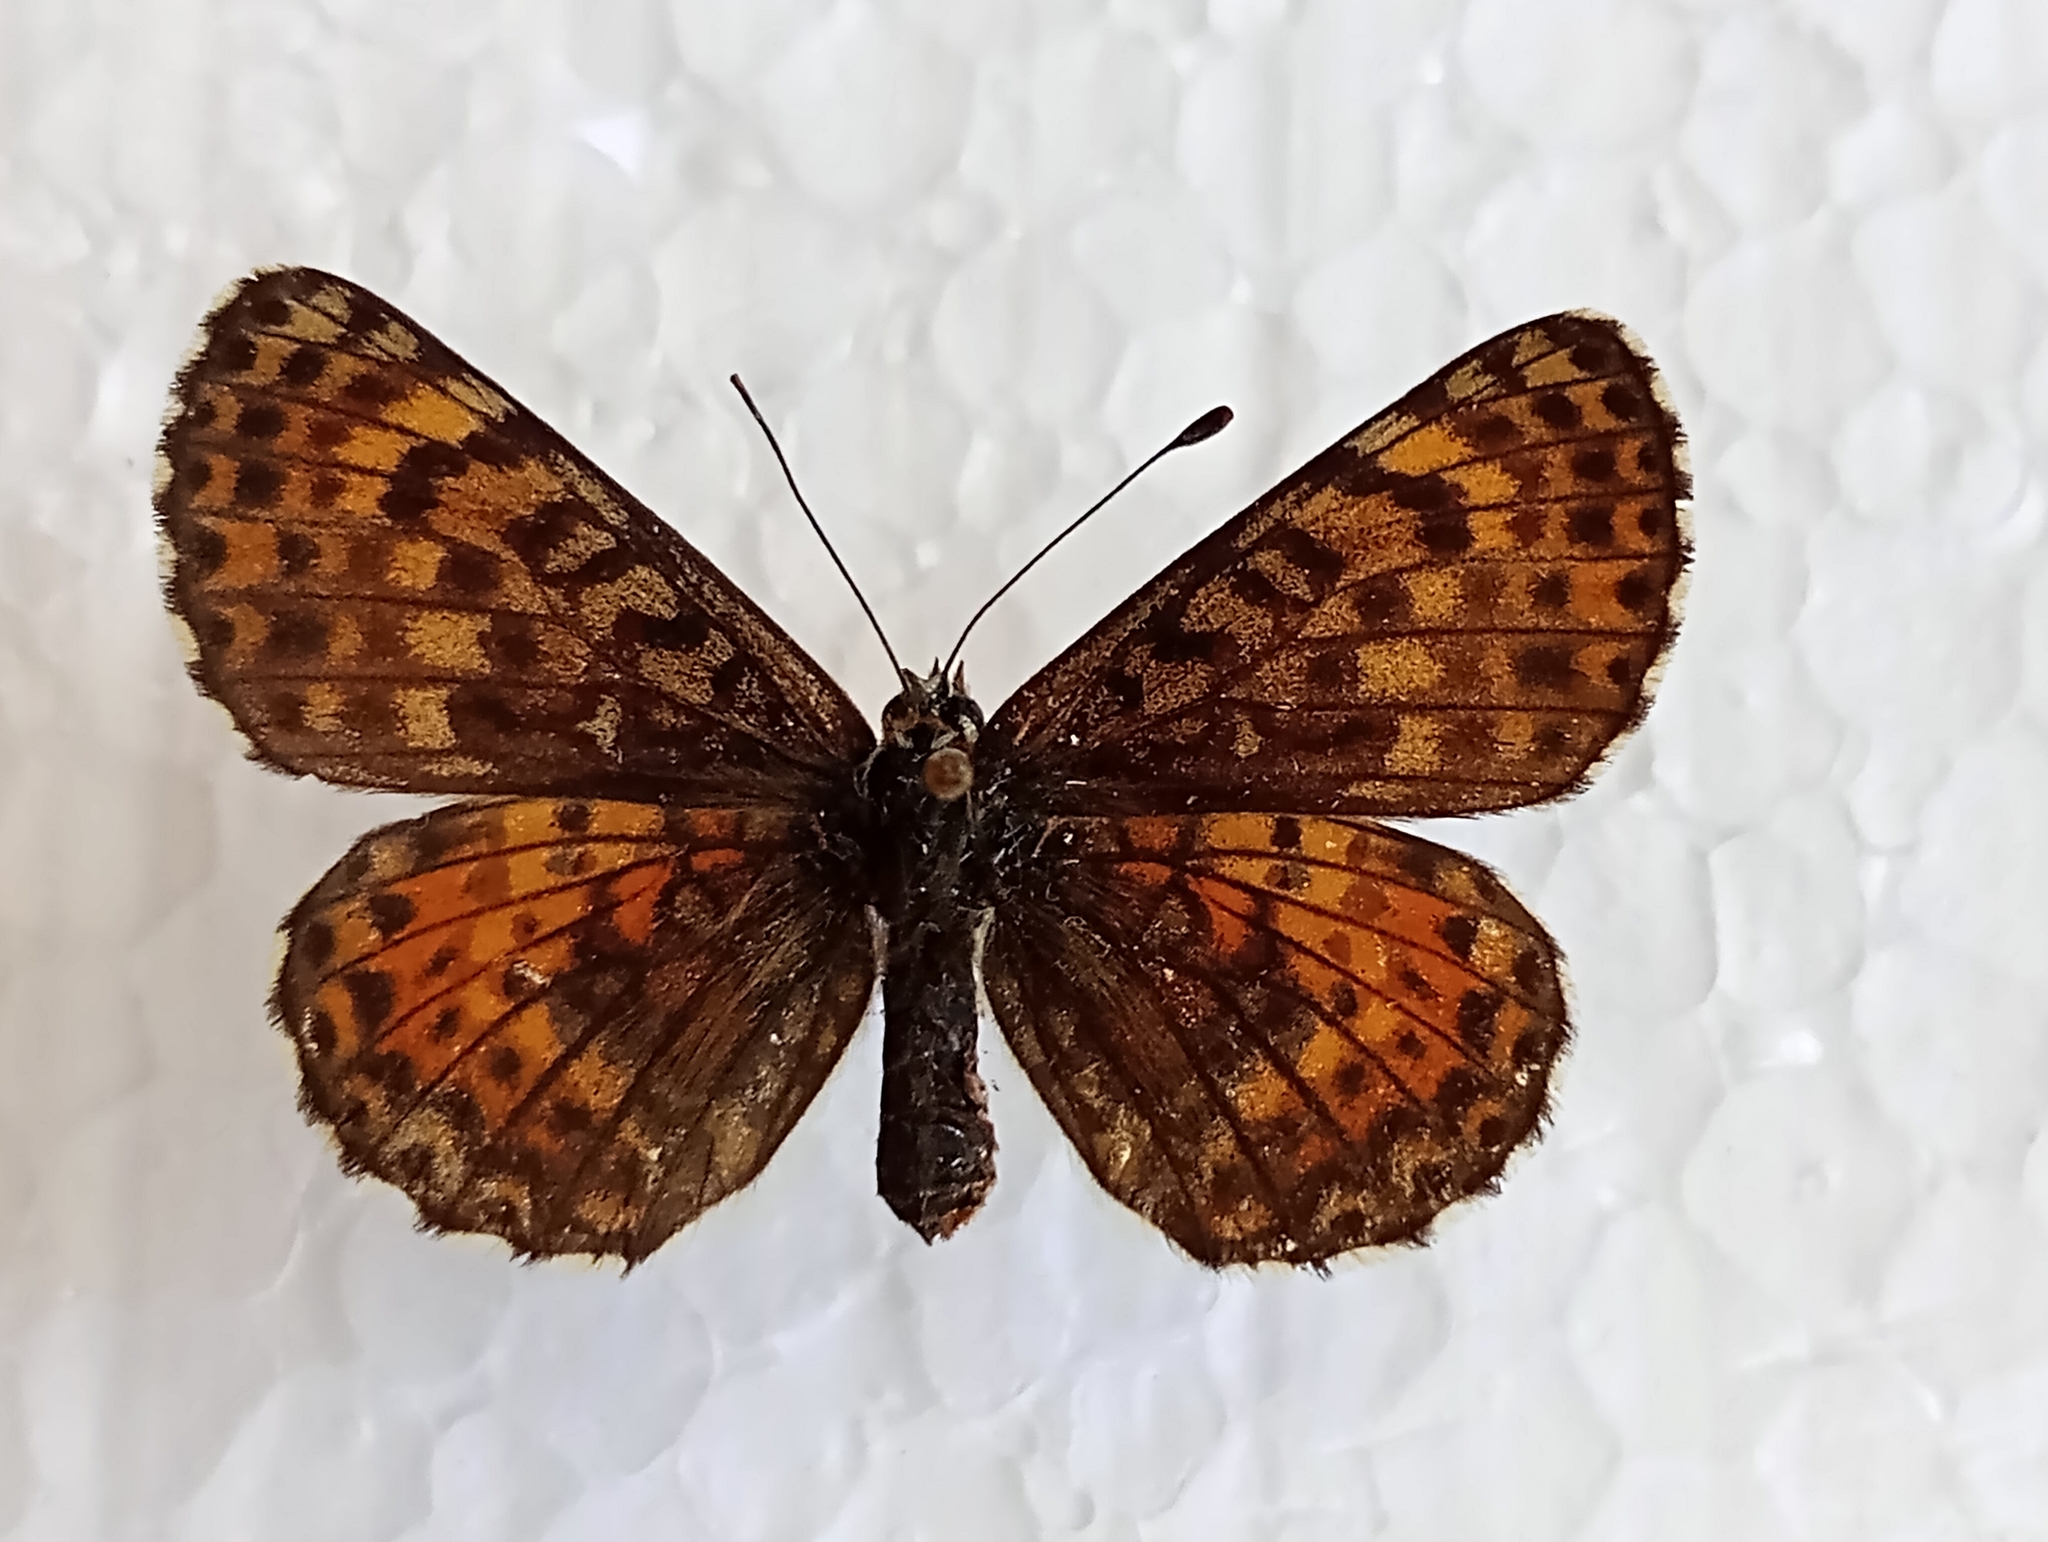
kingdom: Animalia
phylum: Arthropoda
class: Insecta
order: Lepidoptera
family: Nymphalidae
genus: Melitaea
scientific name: Melitaea didyma
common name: Spotted fritillary
